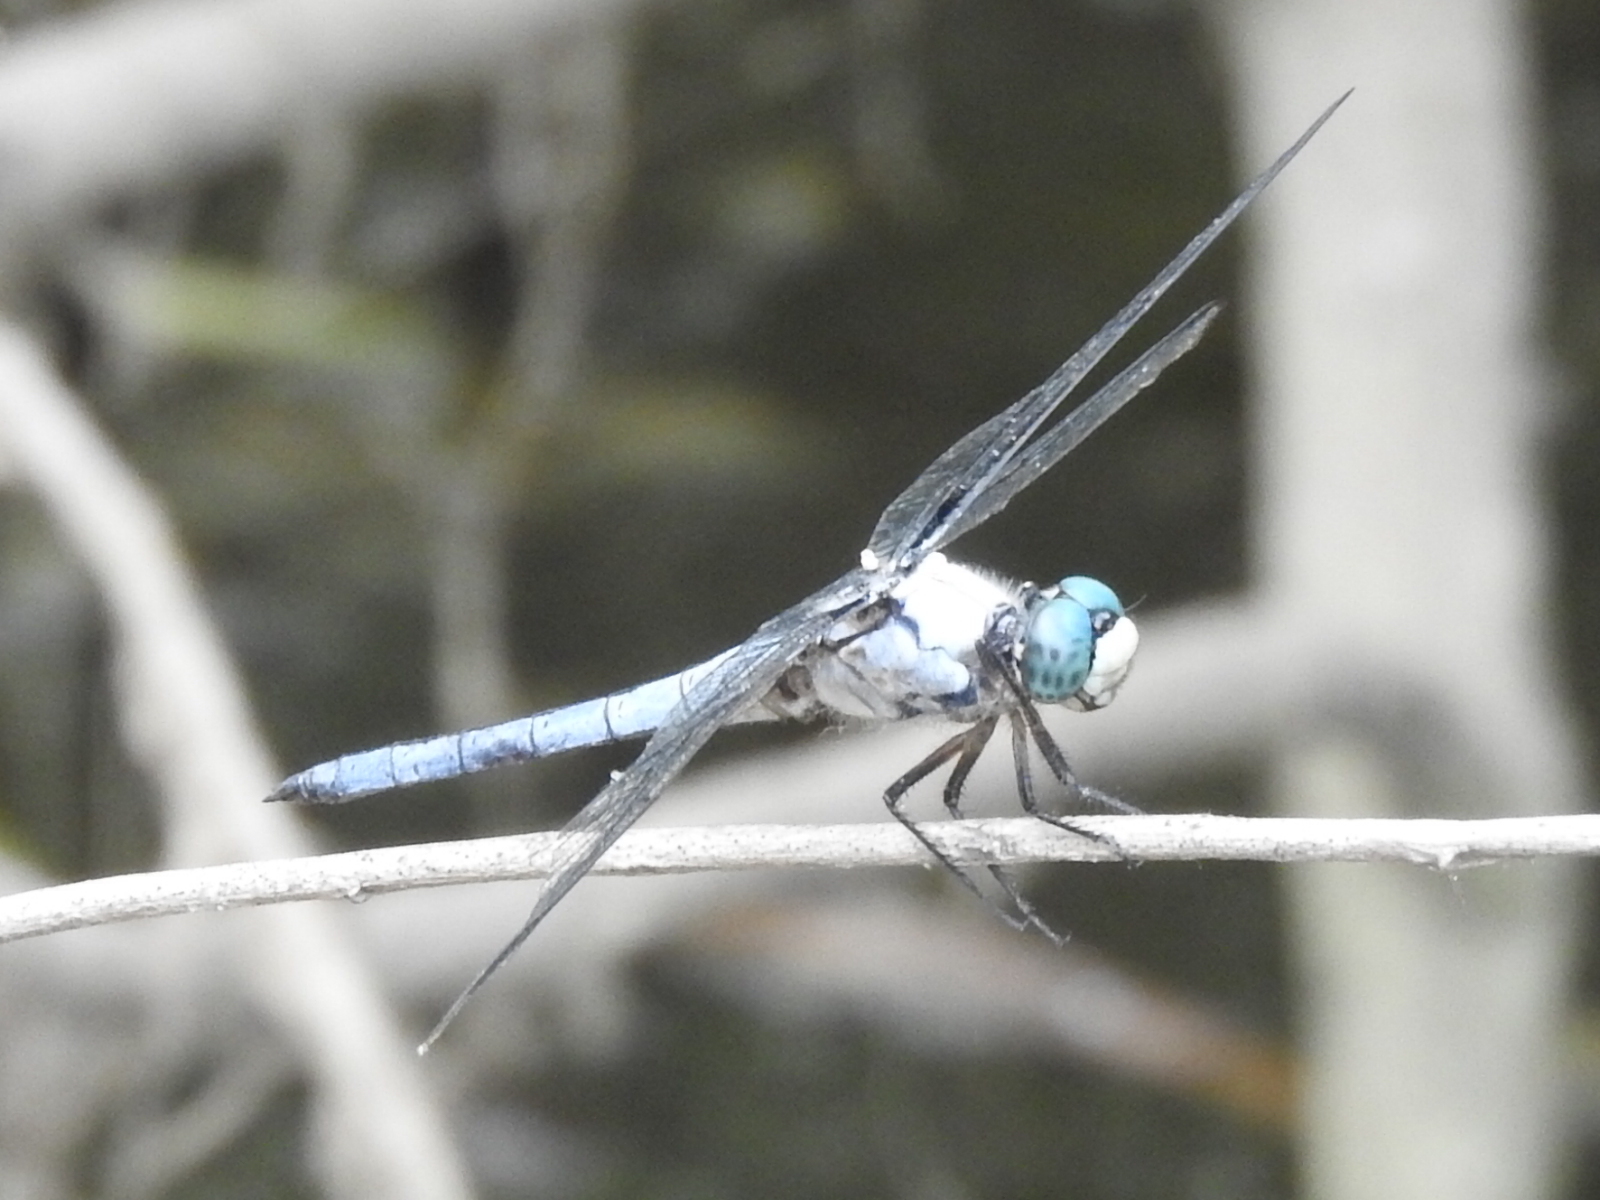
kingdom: Animalia
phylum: Arthropoda
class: Insecta
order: Odonata
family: Libellulidae
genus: Libellula
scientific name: Libellula vibrans
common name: Great blue skimmer
